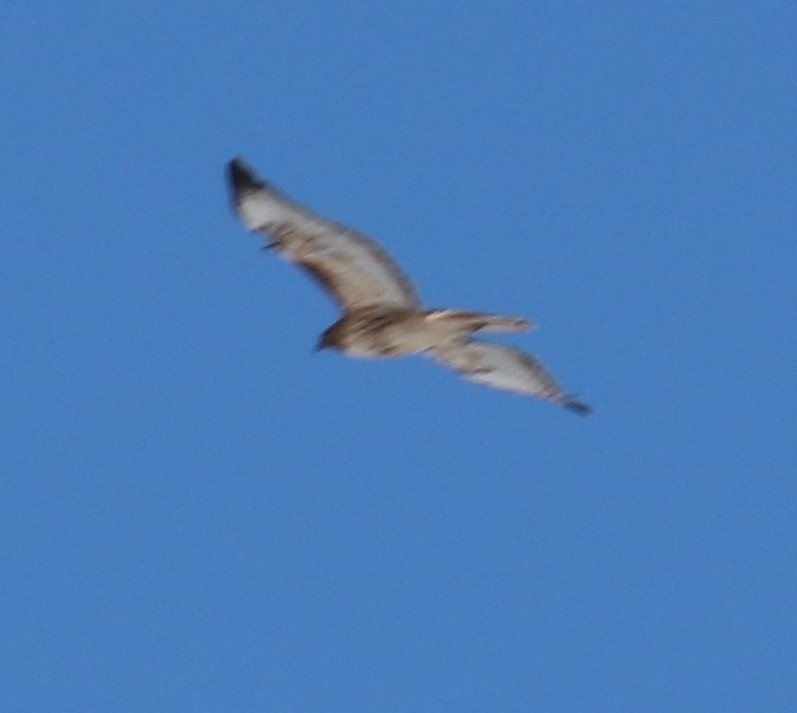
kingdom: Animalia
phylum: Chordata
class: Aves
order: Accipitriformes
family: Accipitridae
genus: Buteo
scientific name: Buteo jamaicensis
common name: Red-tailed hawk
